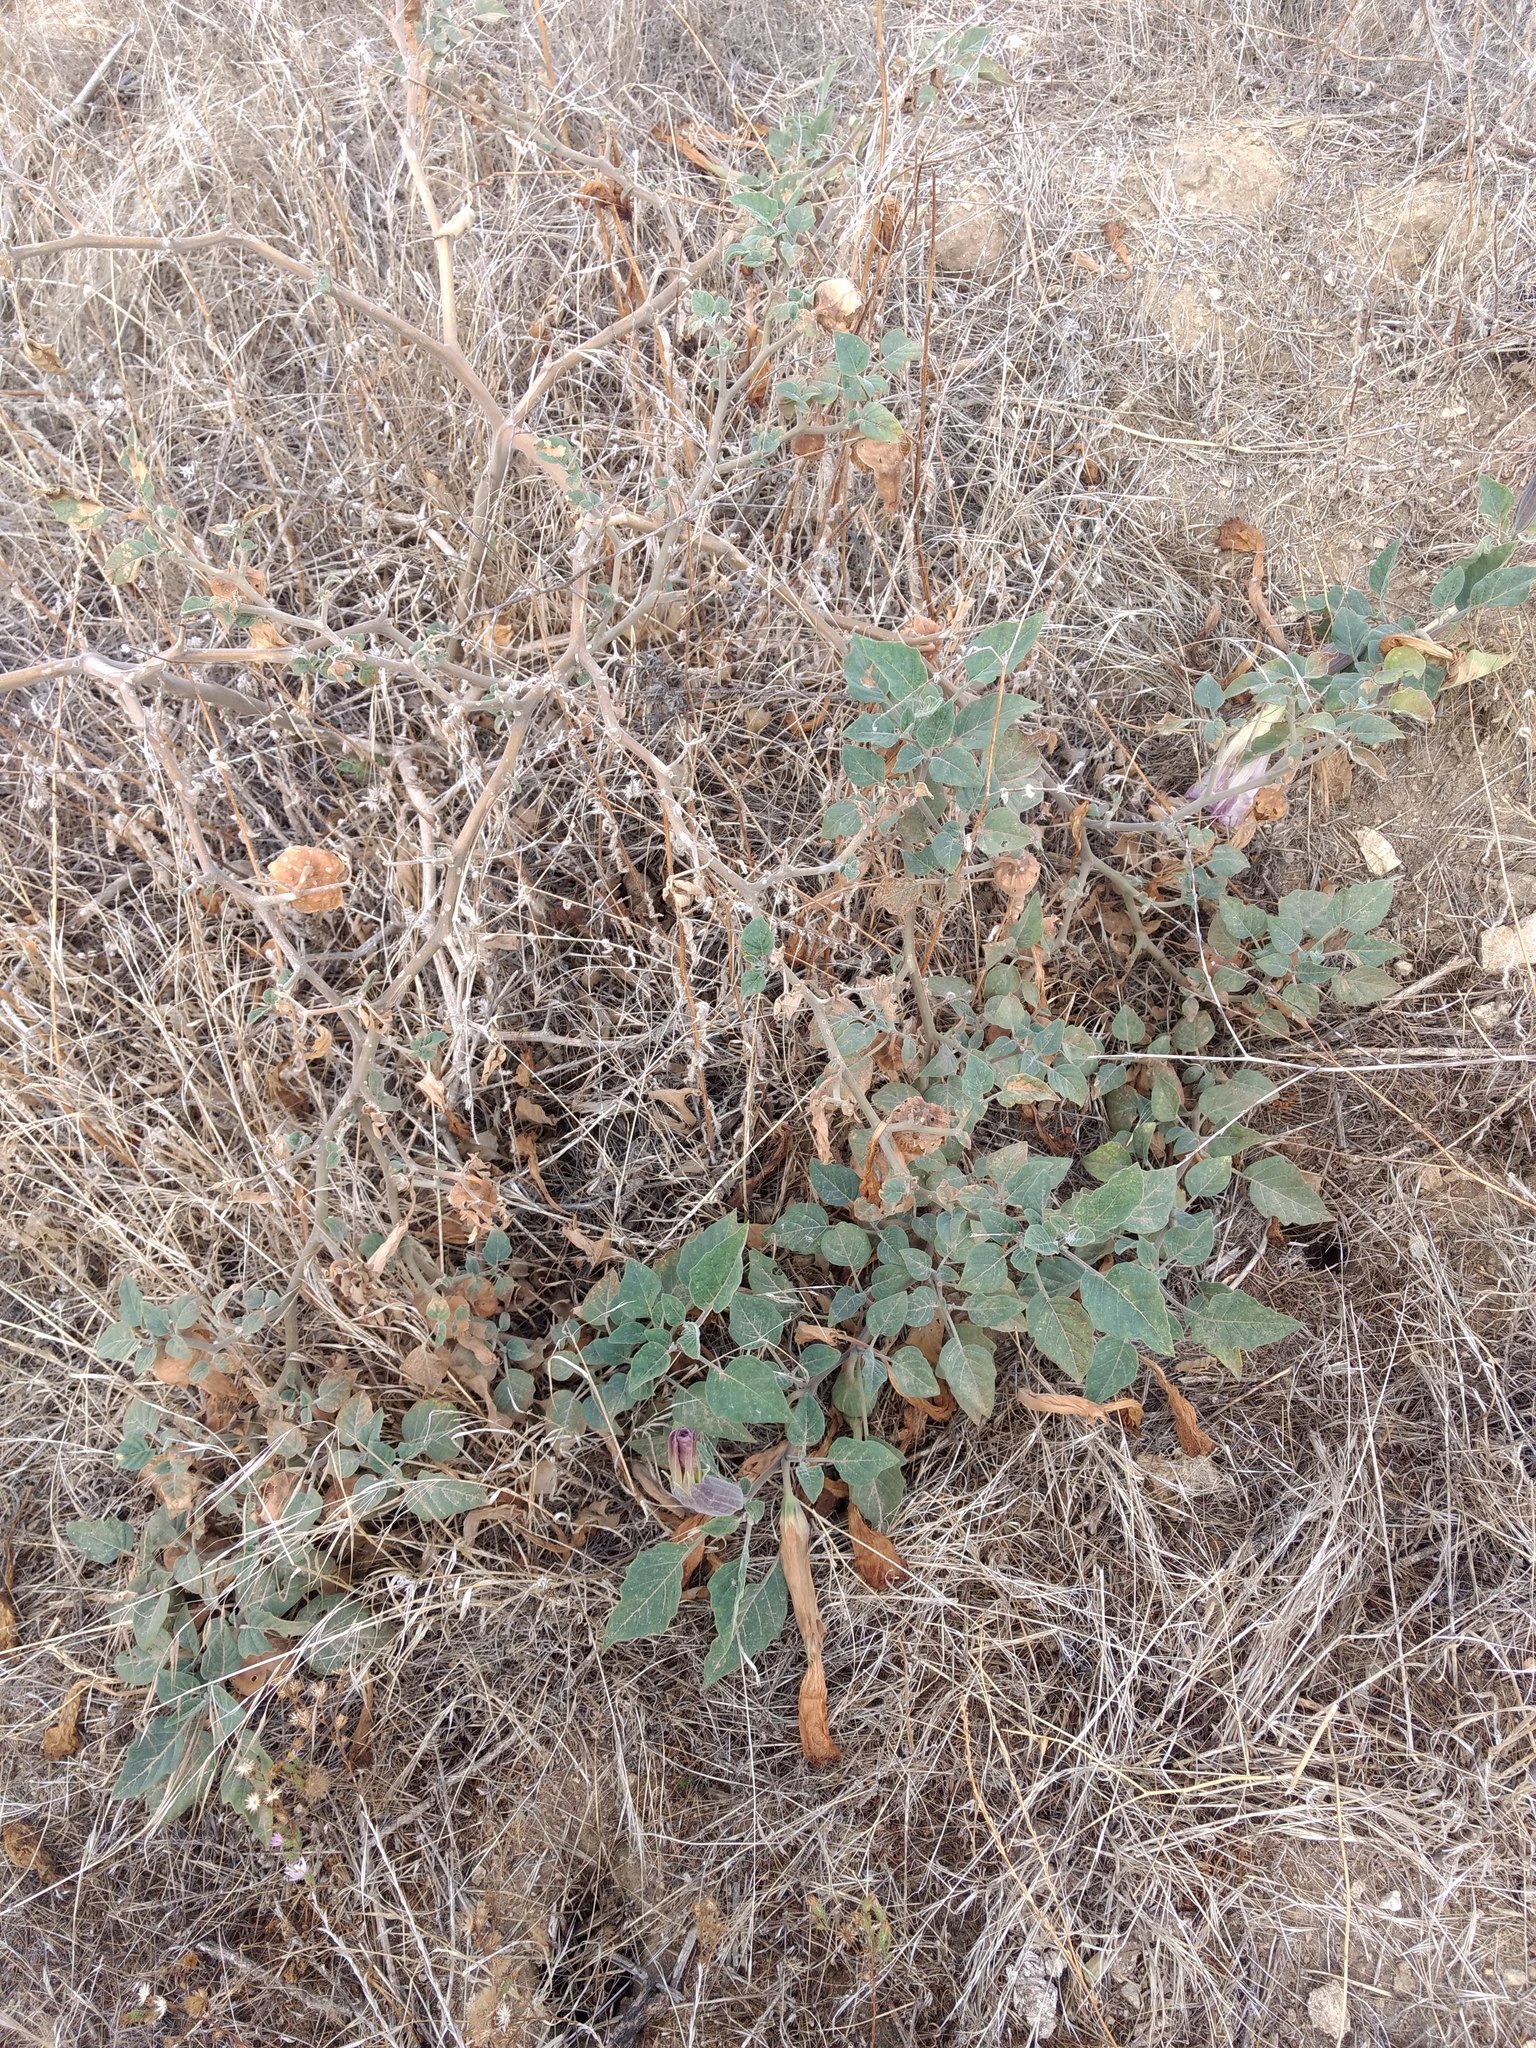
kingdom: Plantae
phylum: Tracheophyta
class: Magnoliopsida
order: Solanales
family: Solanaceae
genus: Datura
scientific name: Datura wrightii
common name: Sacred thorn-apple
